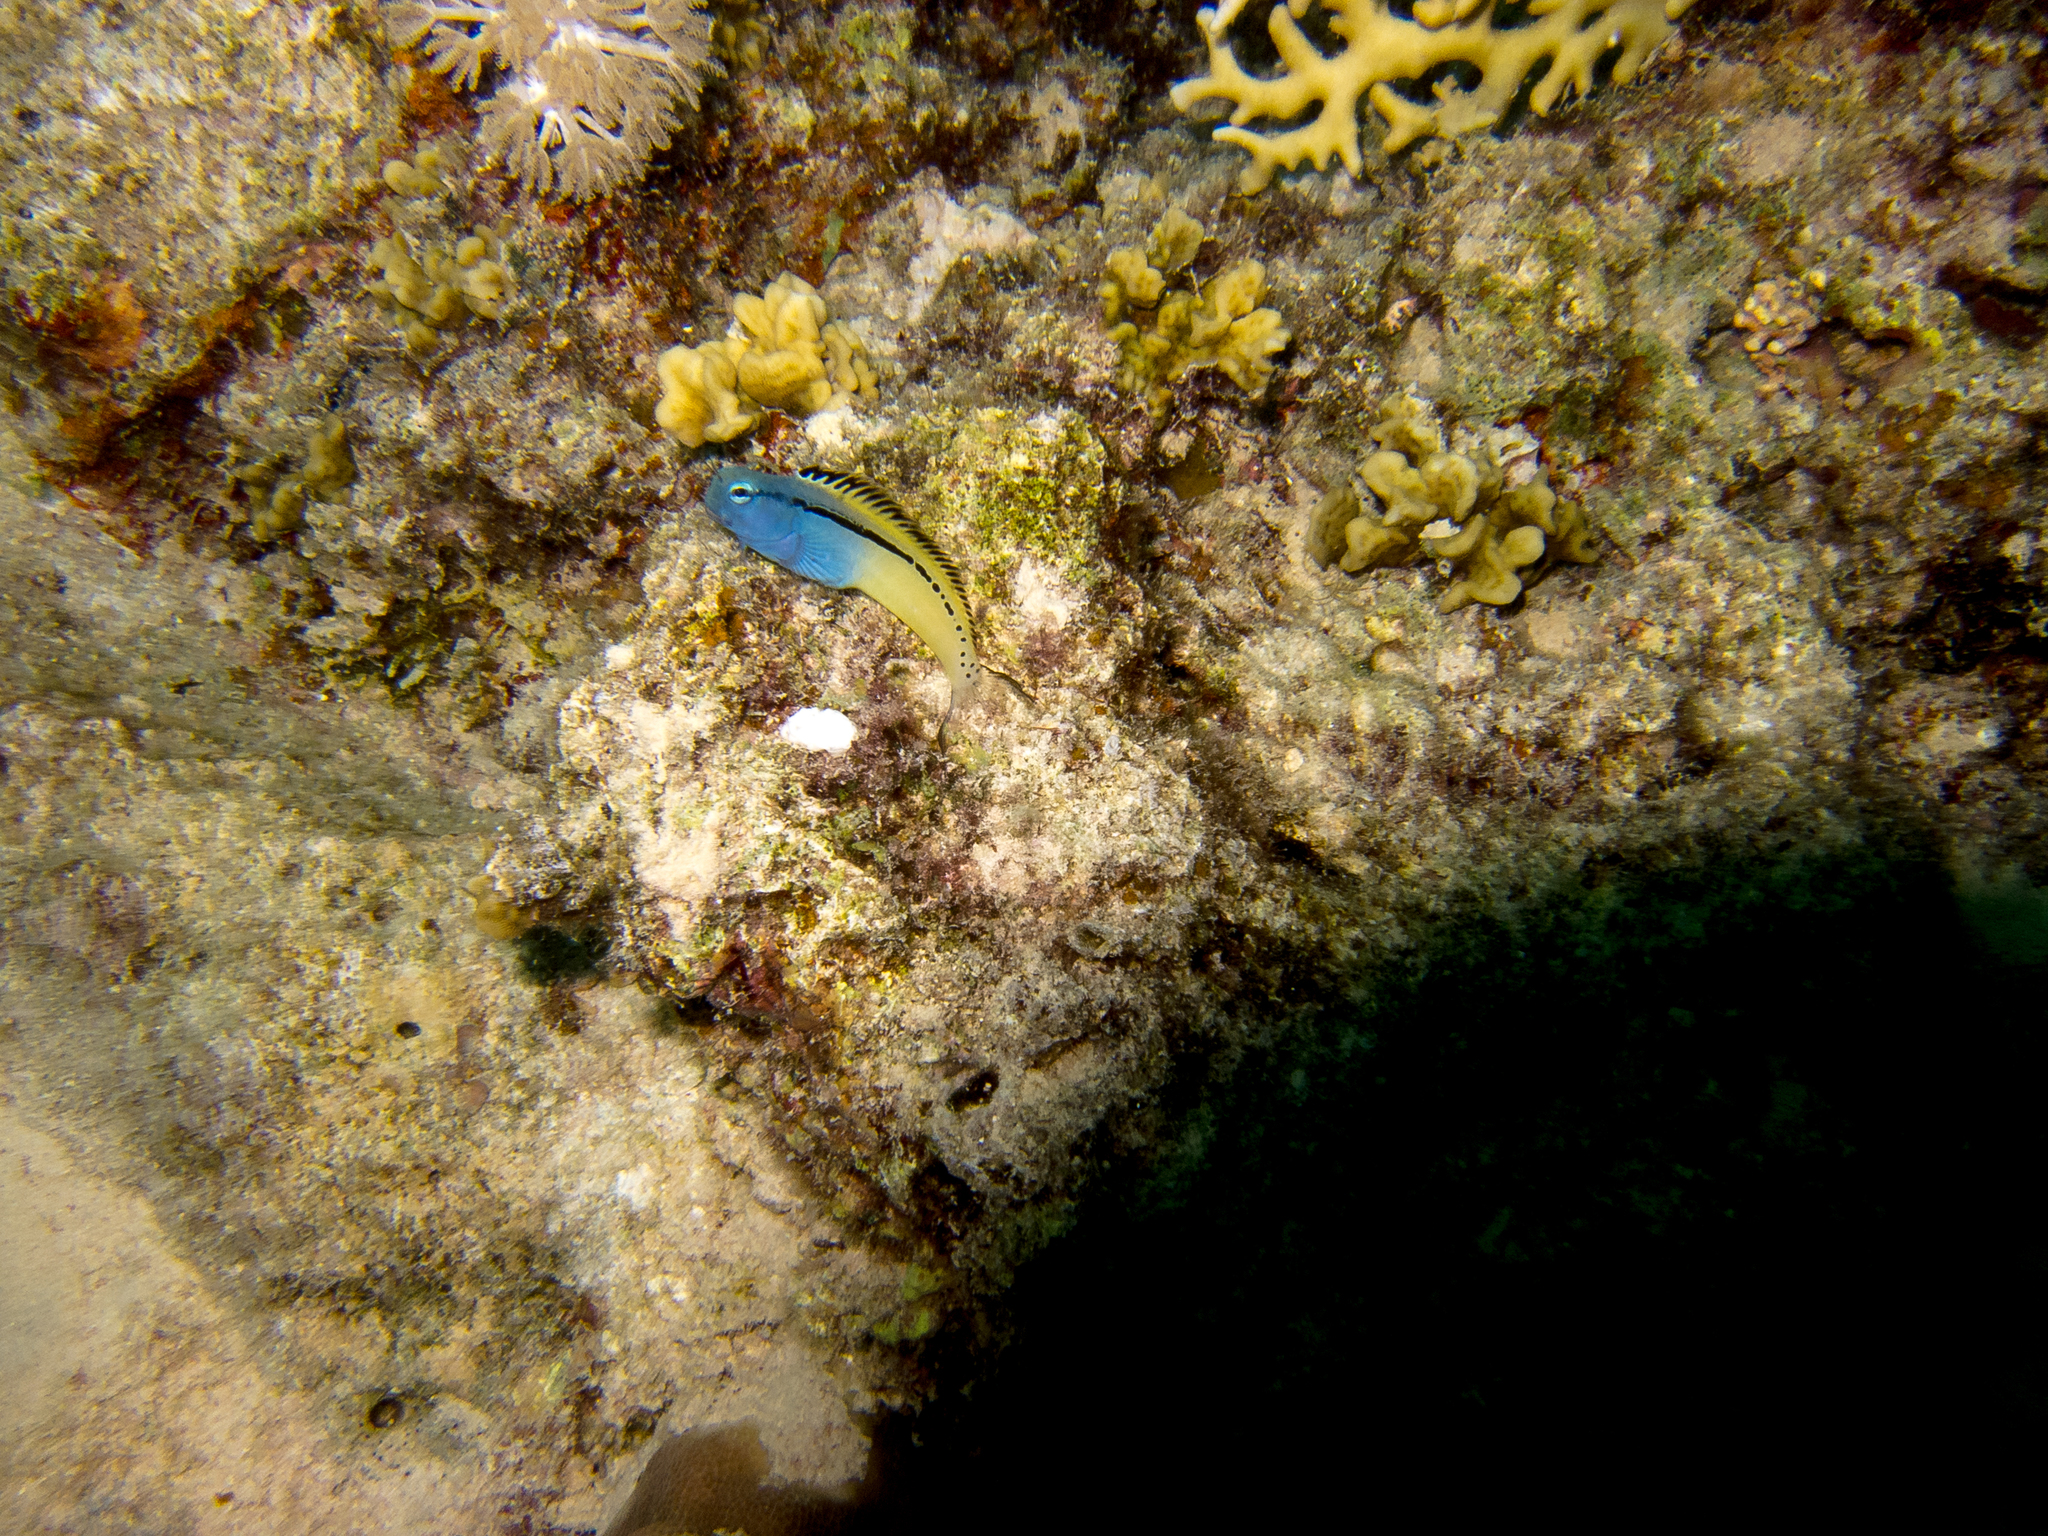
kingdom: Animalia
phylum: Chordata
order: Perciformes
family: Blenniidae
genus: Ecsenius
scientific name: Ecsenius gravieri
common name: Red sea mimic blenny
